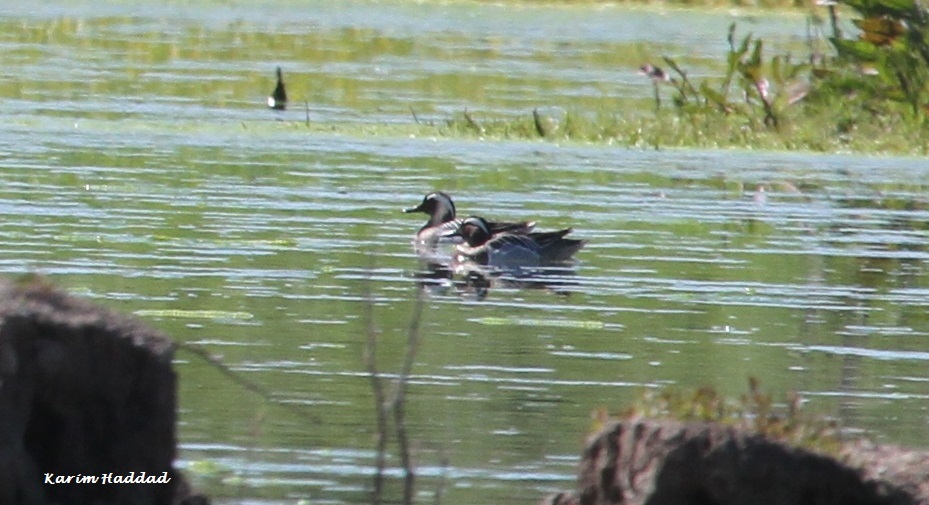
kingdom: Animalia
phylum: Chordata
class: Aves
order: Anseriformes
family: Anatidae
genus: Spatula
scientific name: Spatula querquedula
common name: Garganey
